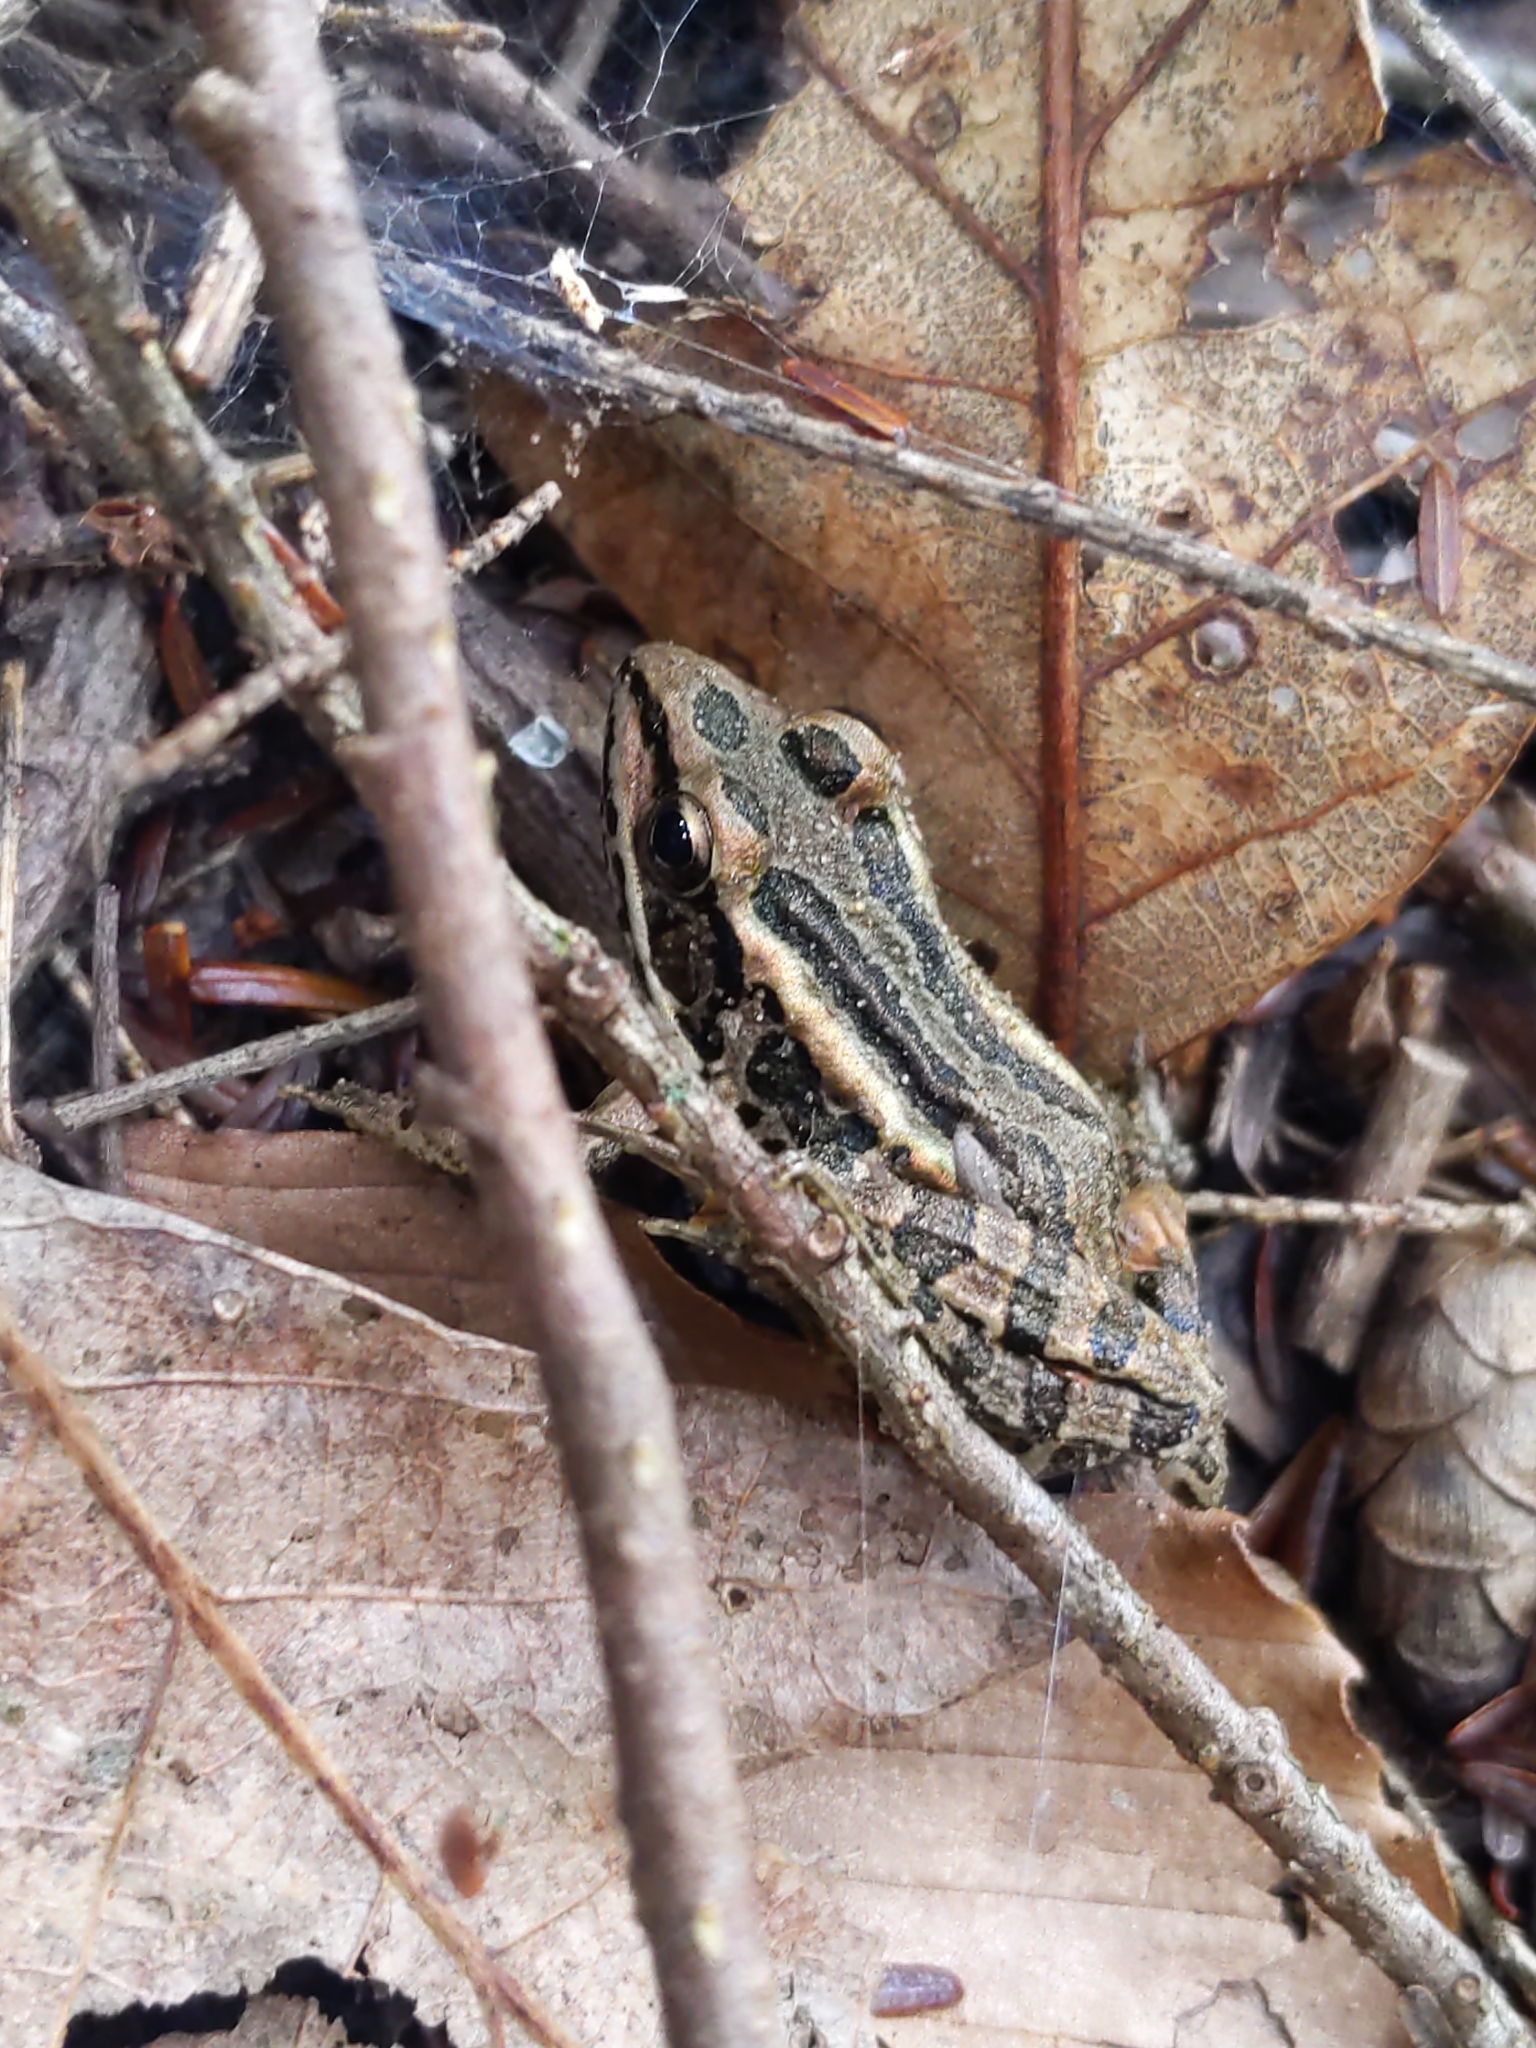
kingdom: Animalia
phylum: Chordata
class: Amphibia
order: Anura
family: Ranidae
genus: Lithobates
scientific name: Lithobates palustris
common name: Pickerel frog
